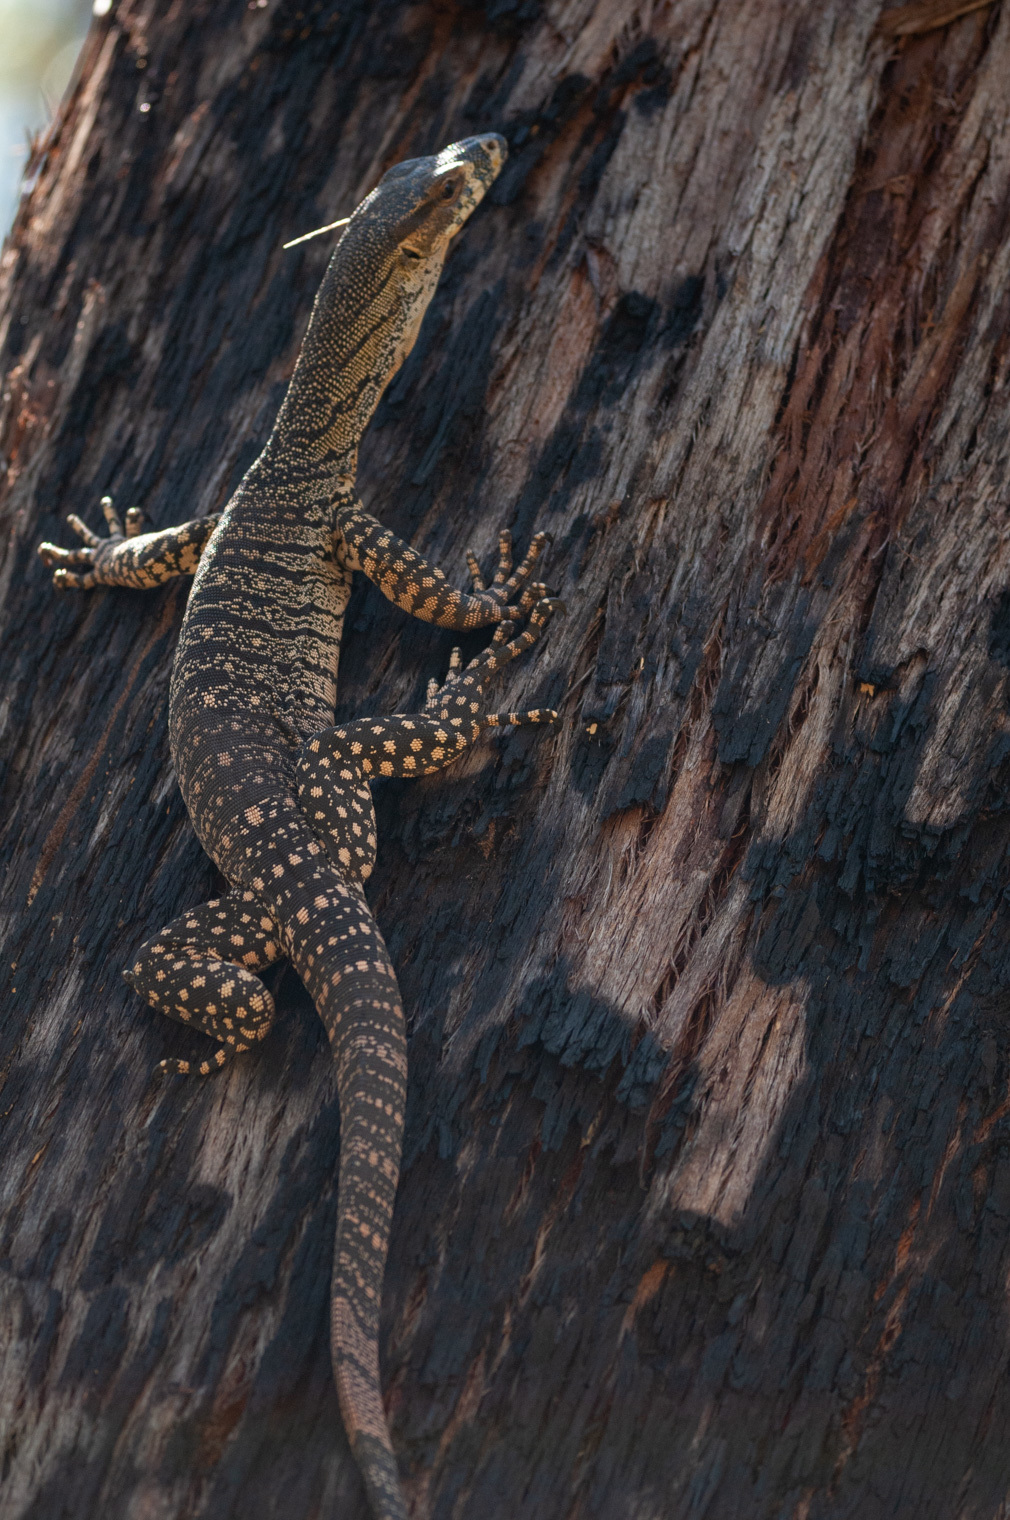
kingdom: Animalia
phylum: Chordata
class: Squamata
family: Varanidae
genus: Varanus
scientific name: Varanus varius
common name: Lace monitor
